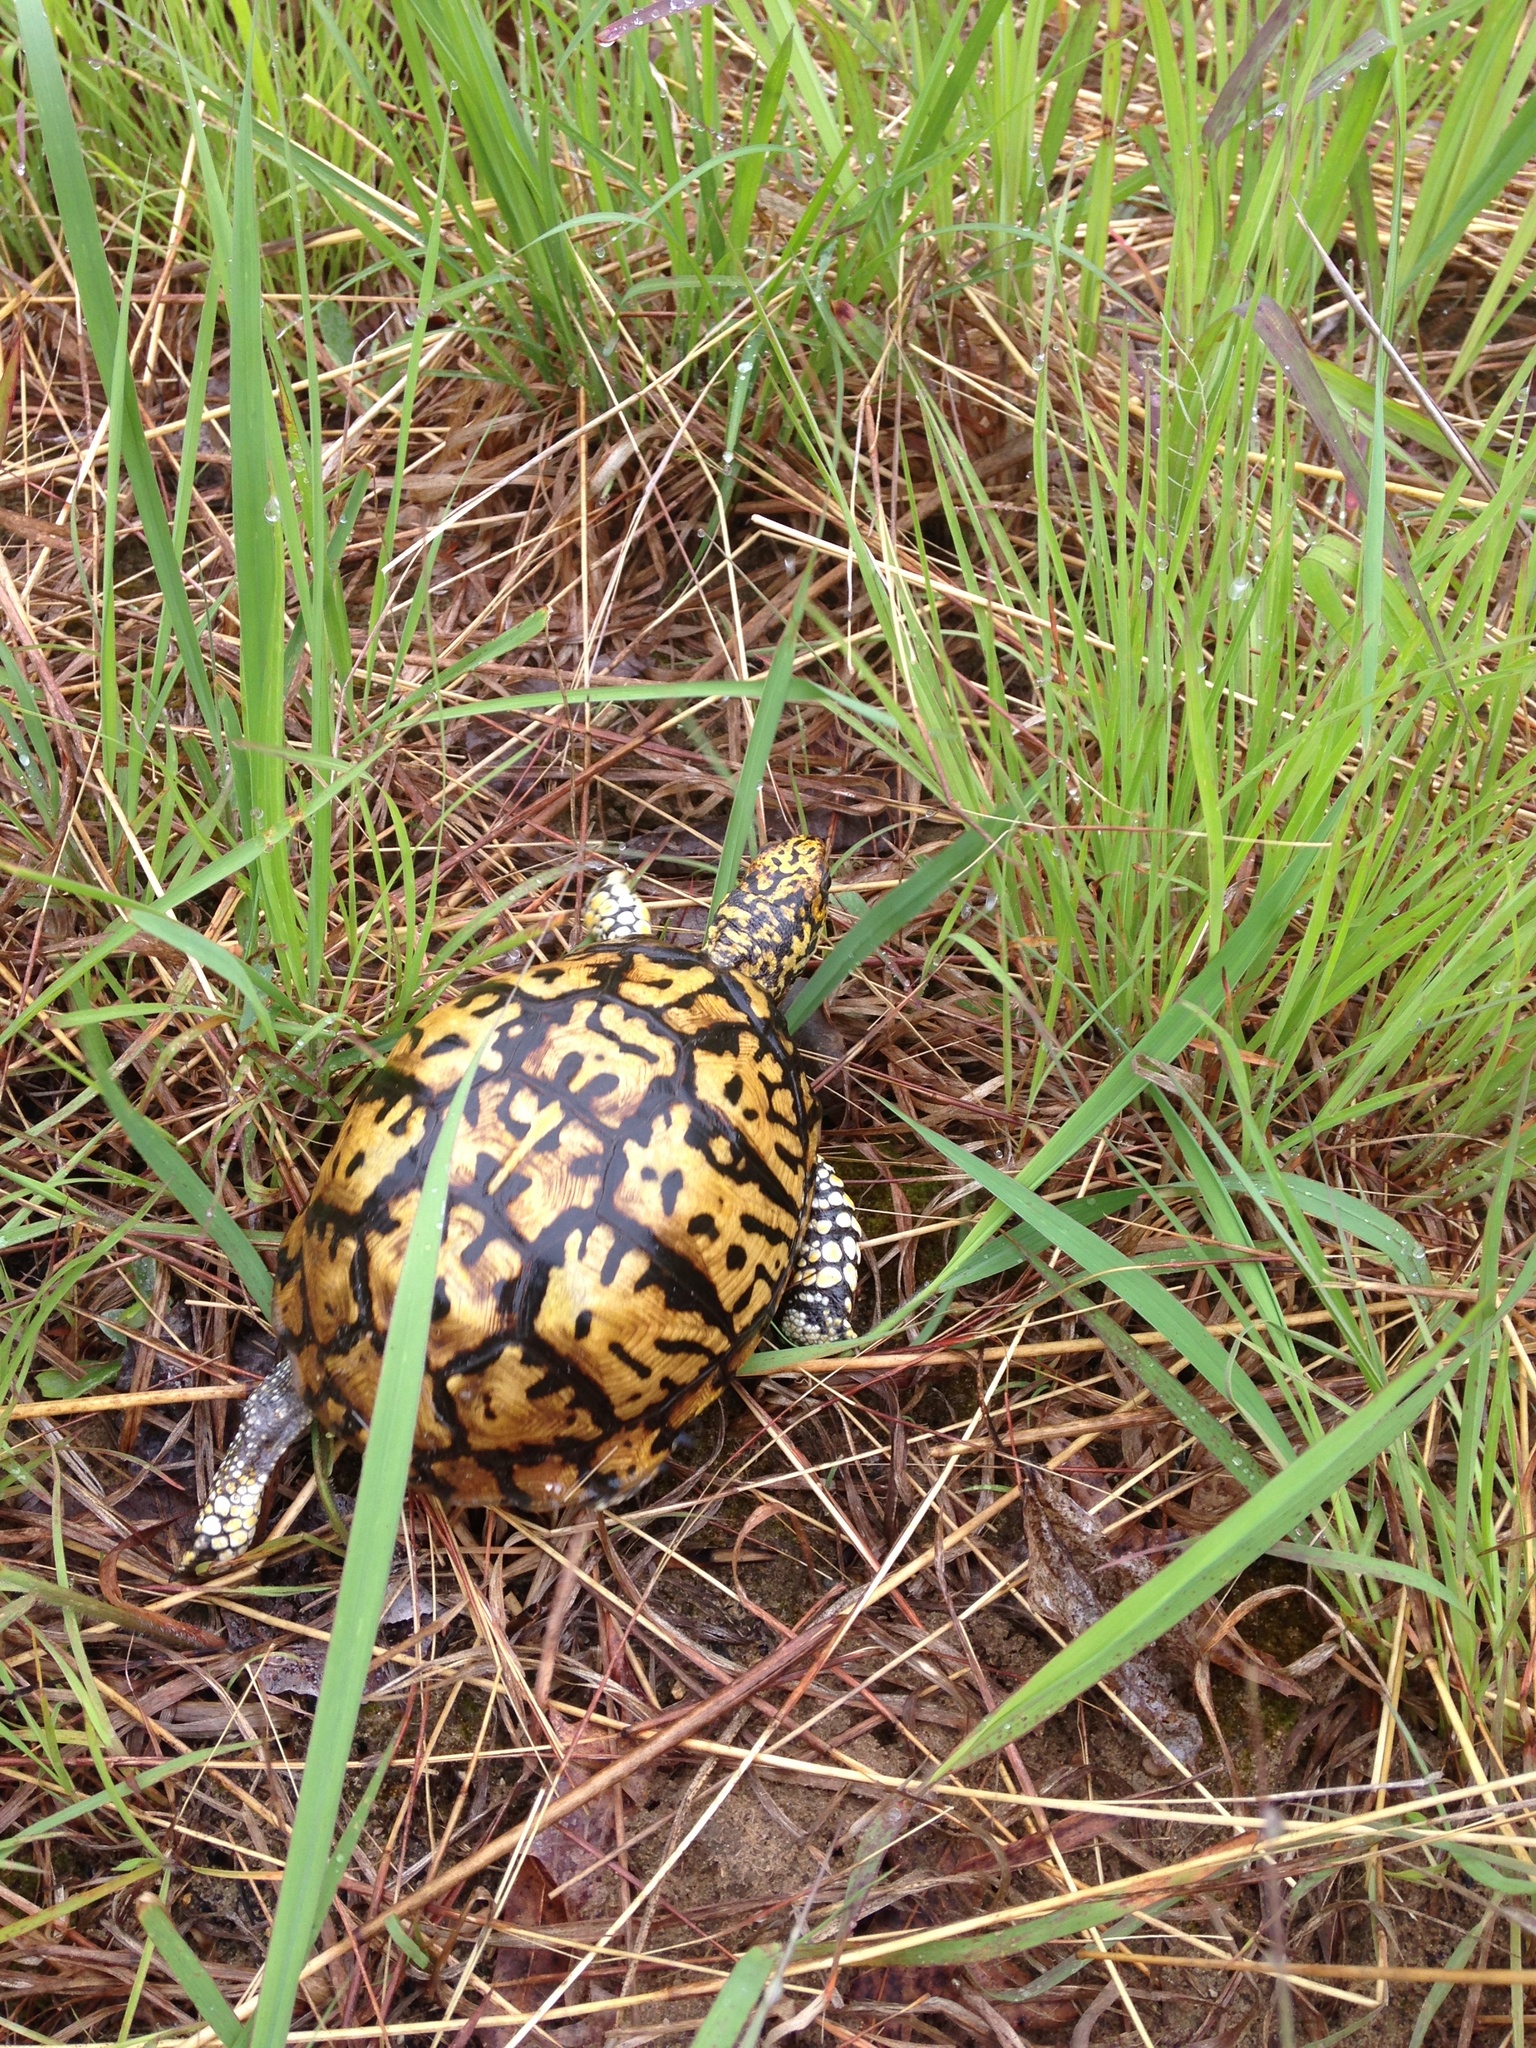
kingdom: Animalia
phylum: Chordata
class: Testudines
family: Emydidae
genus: Terrapene
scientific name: Terrapene carolina
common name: Common box turtle
